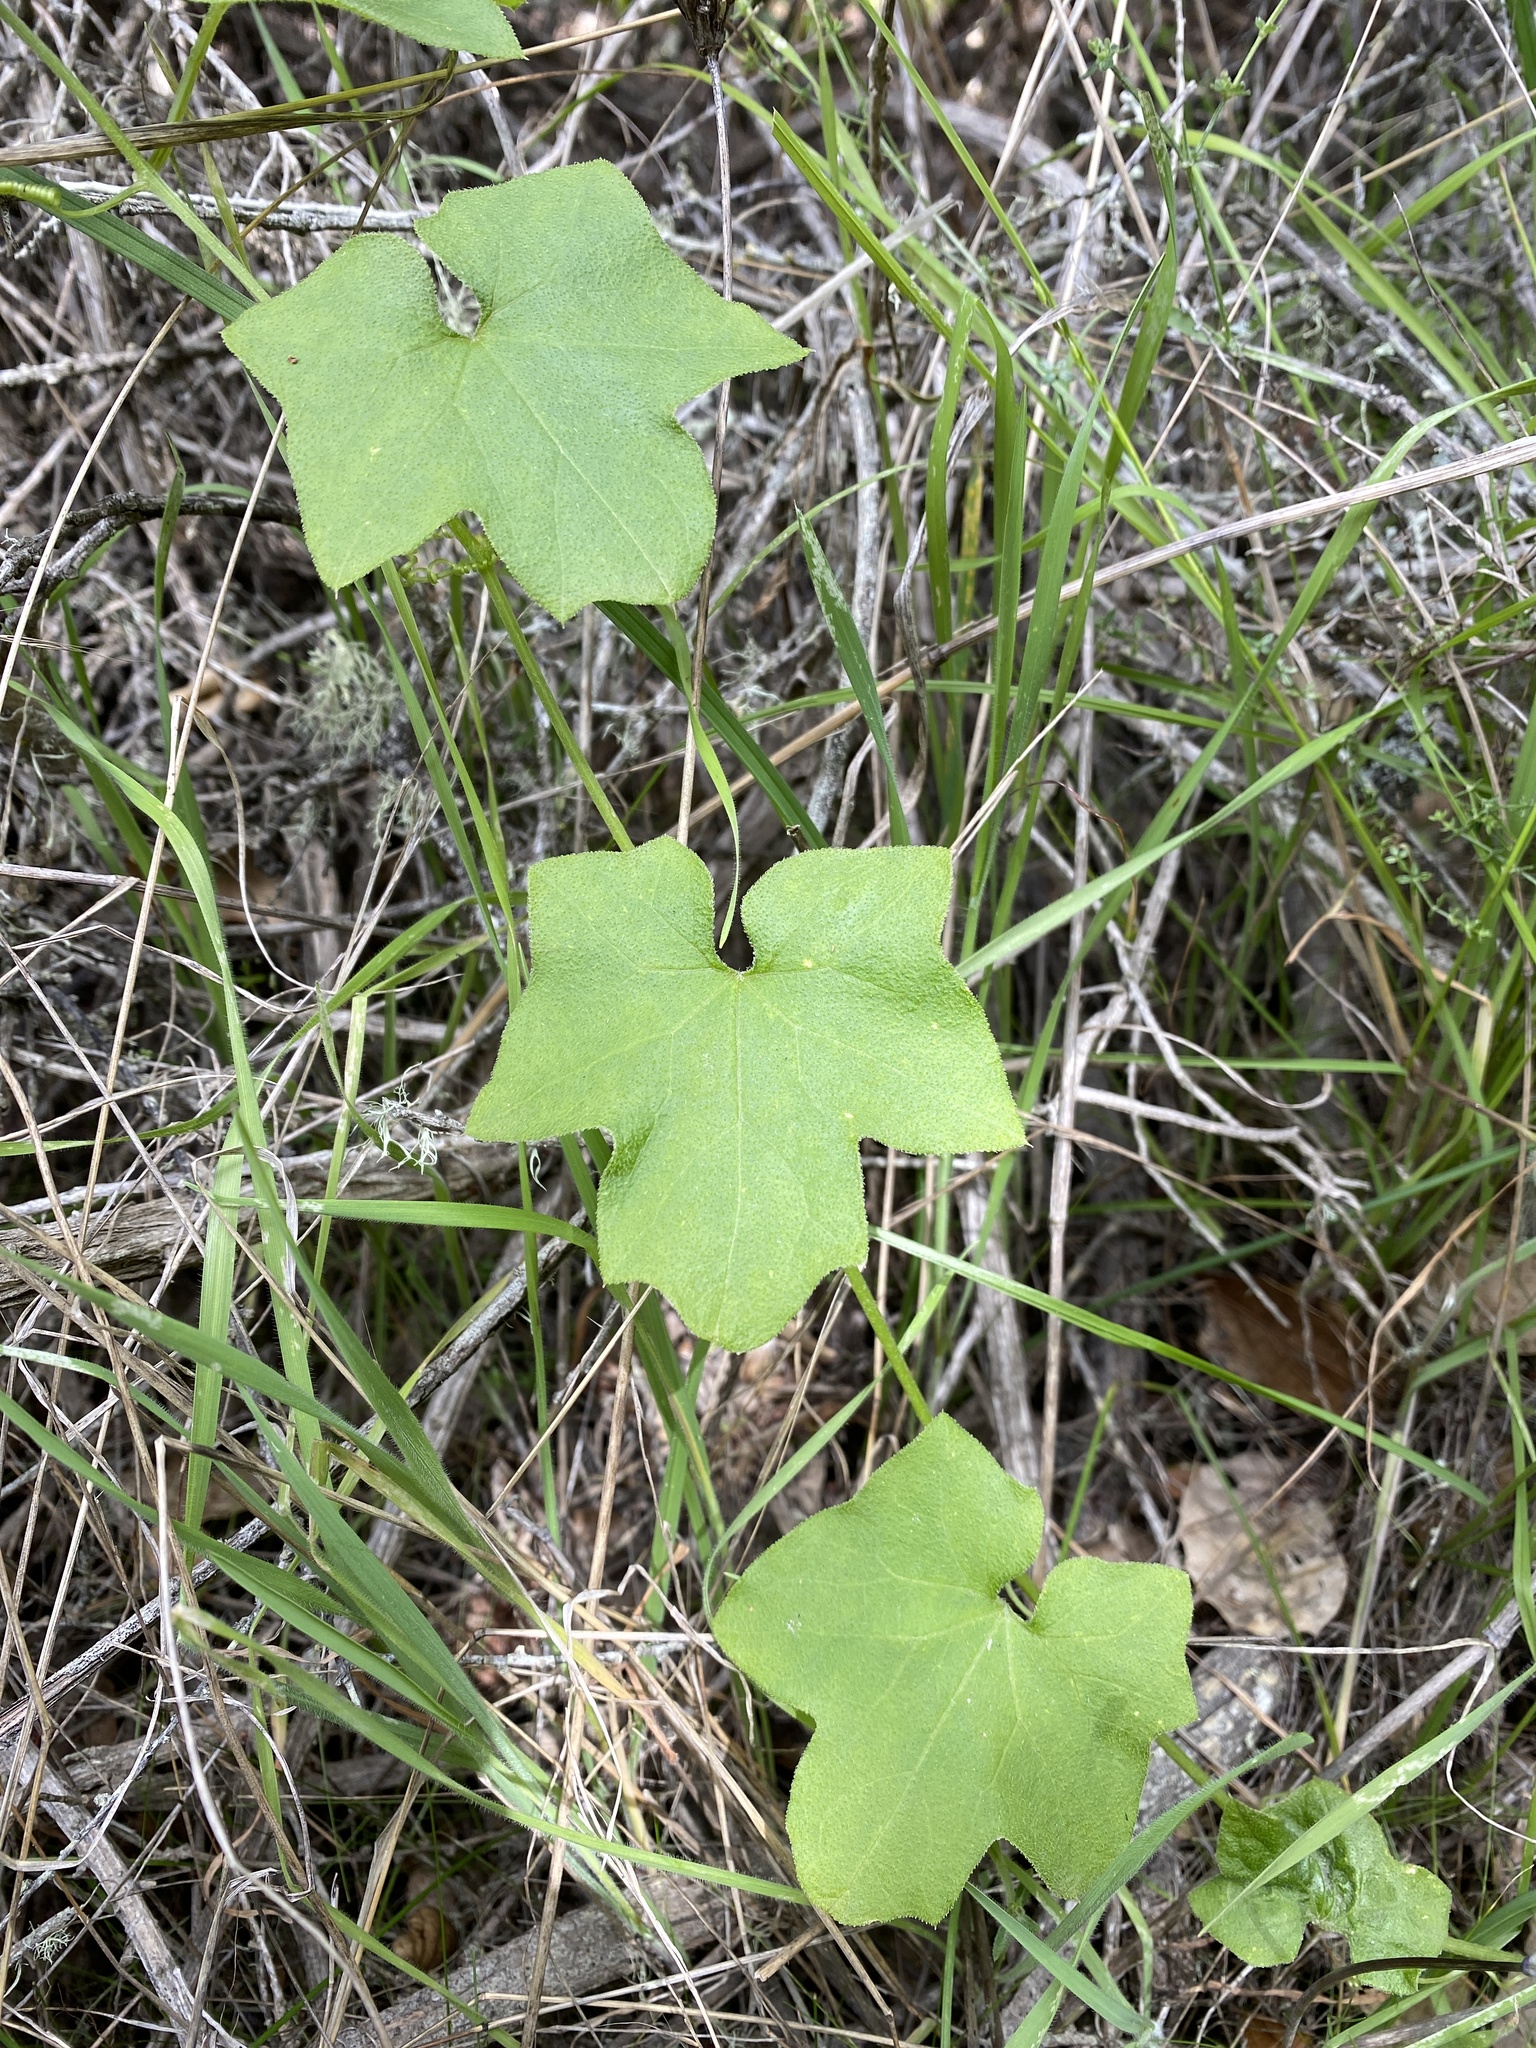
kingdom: Plantae
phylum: Tracheophyta
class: Magnoliopsida
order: Cucurbitales
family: Cucurbitaceae
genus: Marah
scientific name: Marah fabacea
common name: California manroot
